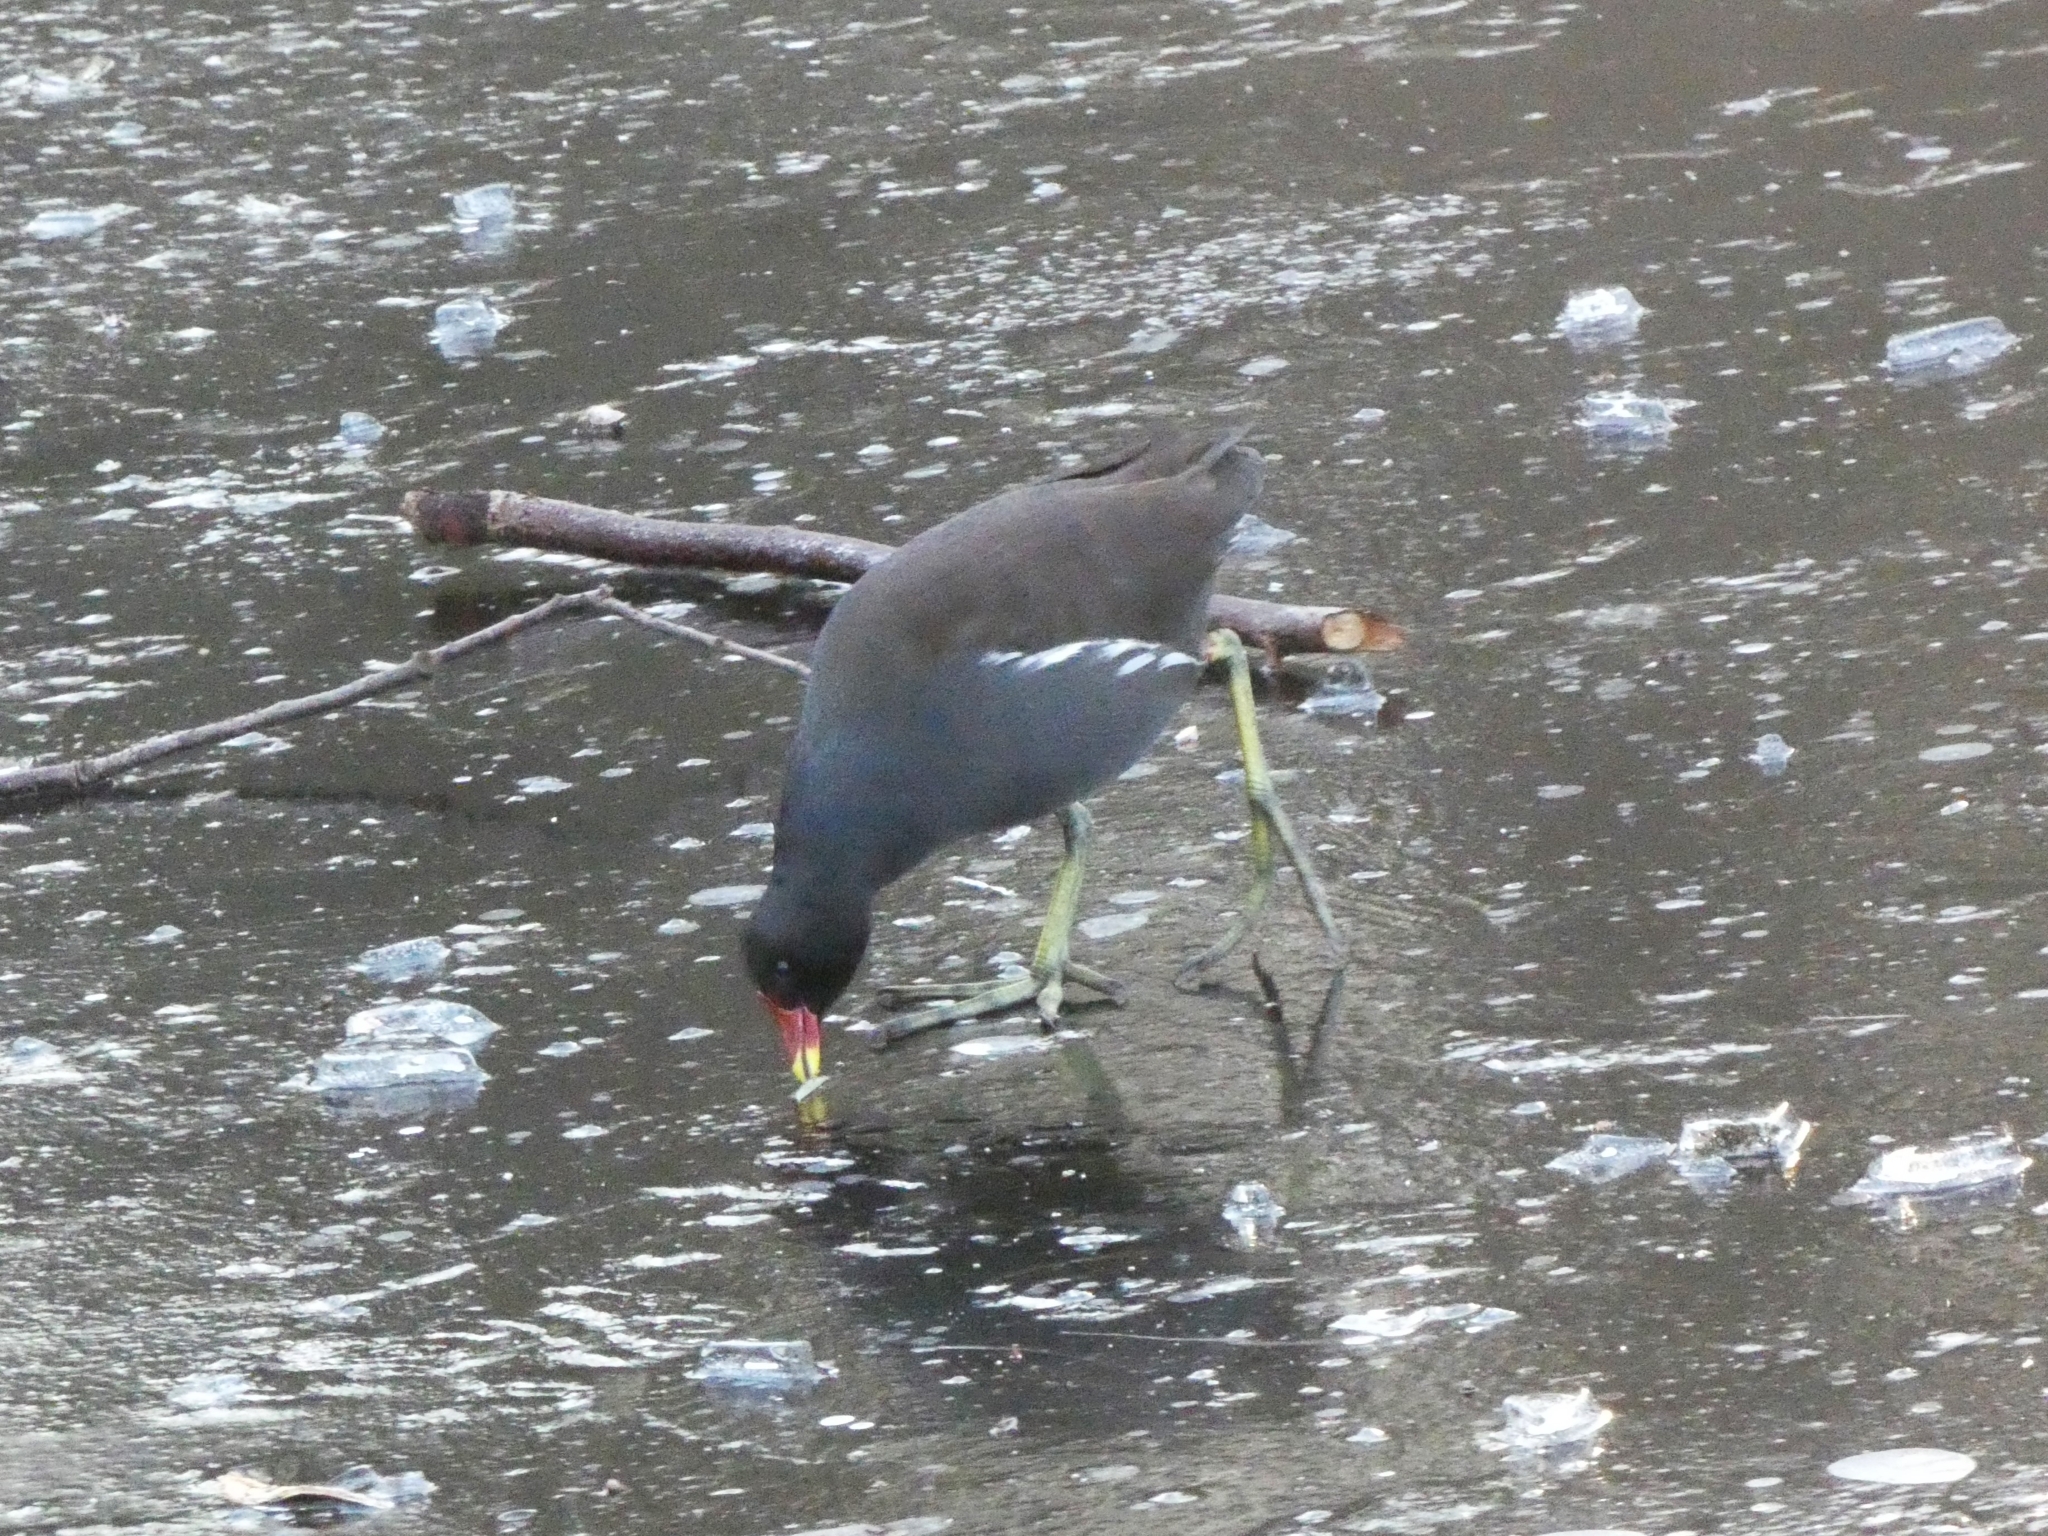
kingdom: Animalia
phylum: Chordata
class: Aves
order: Gruiformes
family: Rallidae
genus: Gallinula
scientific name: Gallinula chloropus
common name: Common moorhen
